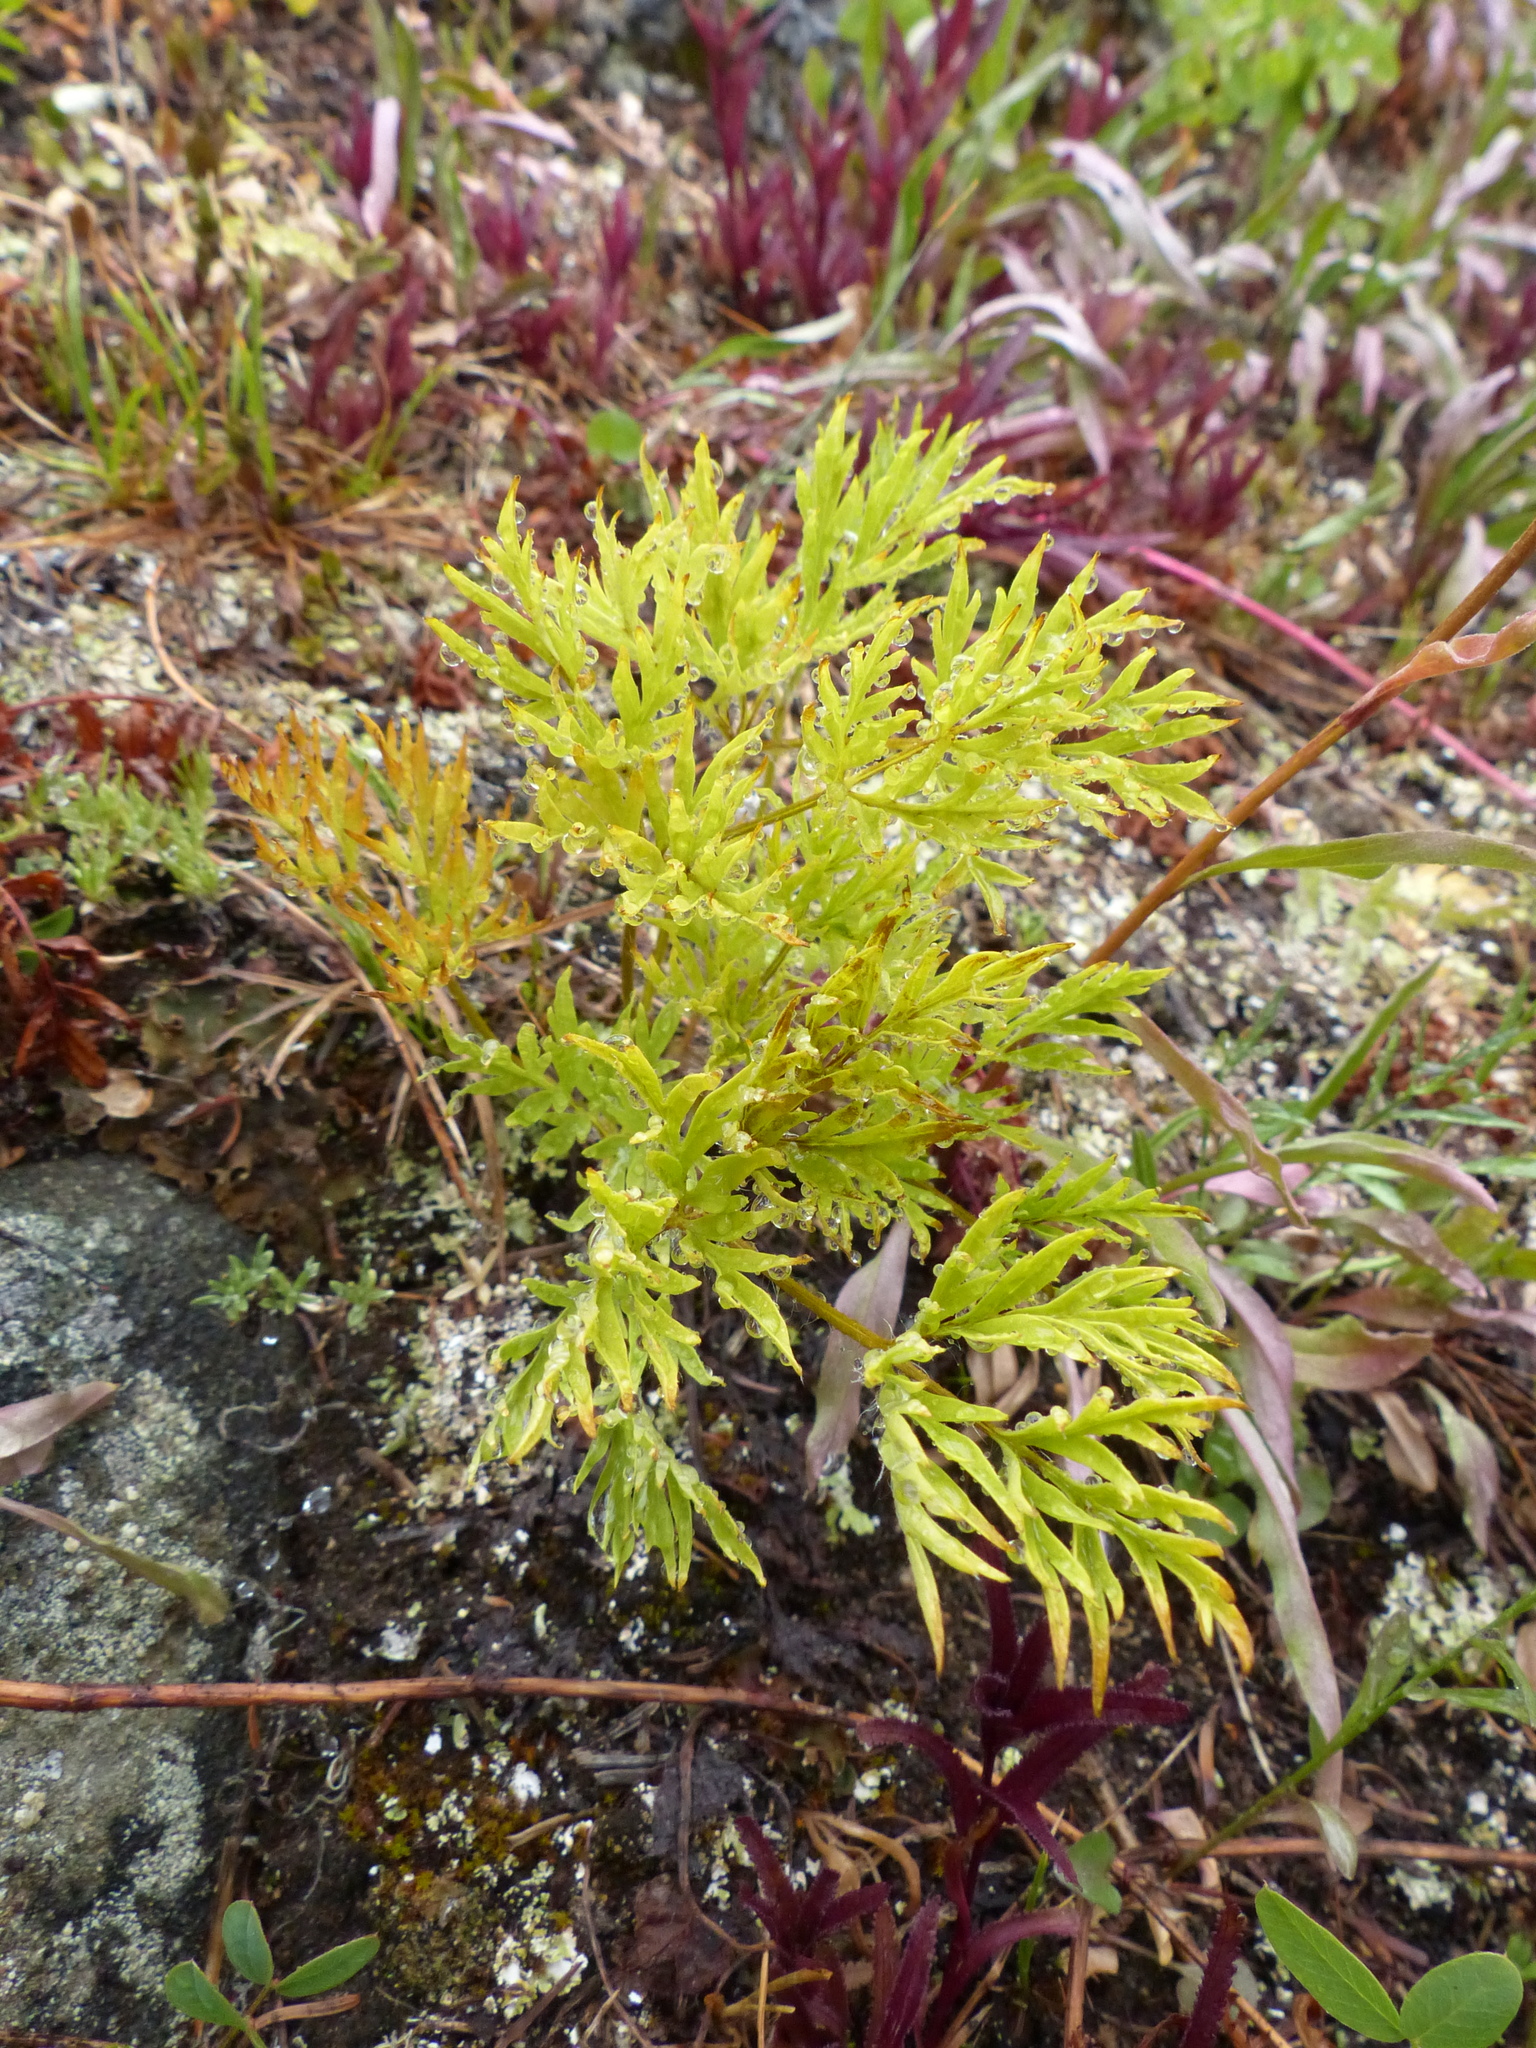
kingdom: Plantae
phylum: Tracheophyta
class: Magnoliopsida
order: Ranunculales
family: Ranunculaceae
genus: Pulsatilla
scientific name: Pulsatilla occidentalis
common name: Mountain pasqueflower
